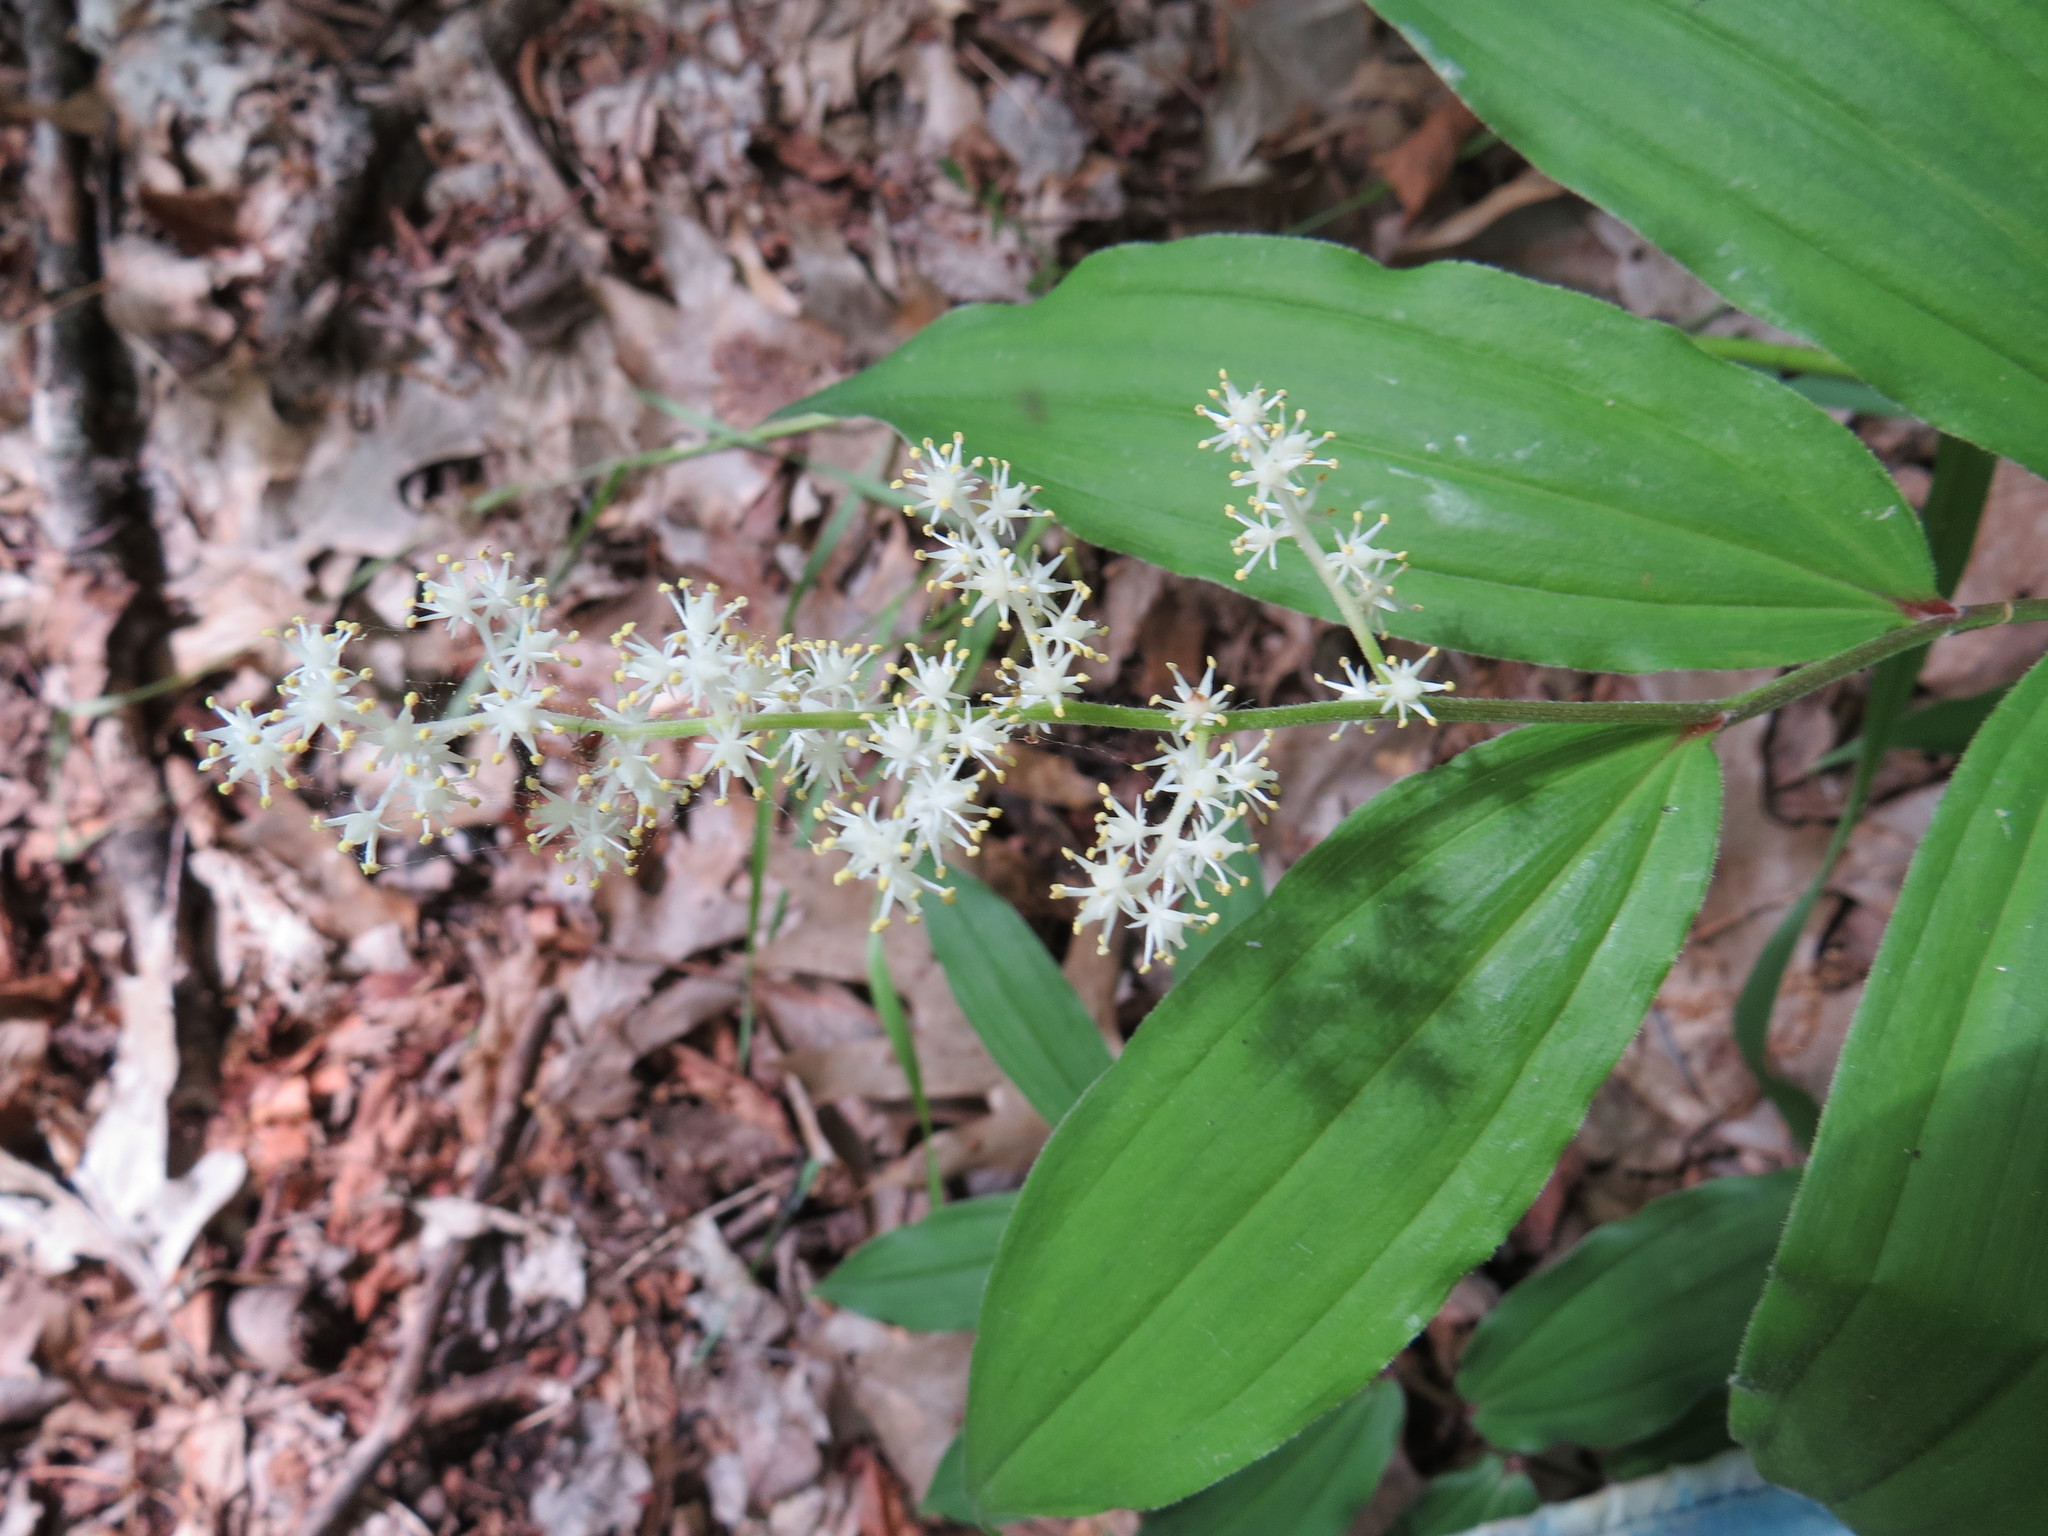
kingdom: Plantae
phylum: Tracheophyta
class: Liliopsida
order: Asparagales
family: Asparagaceae
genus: Maianthemum
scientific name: Maianthemum racemosum
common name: False spikenard
